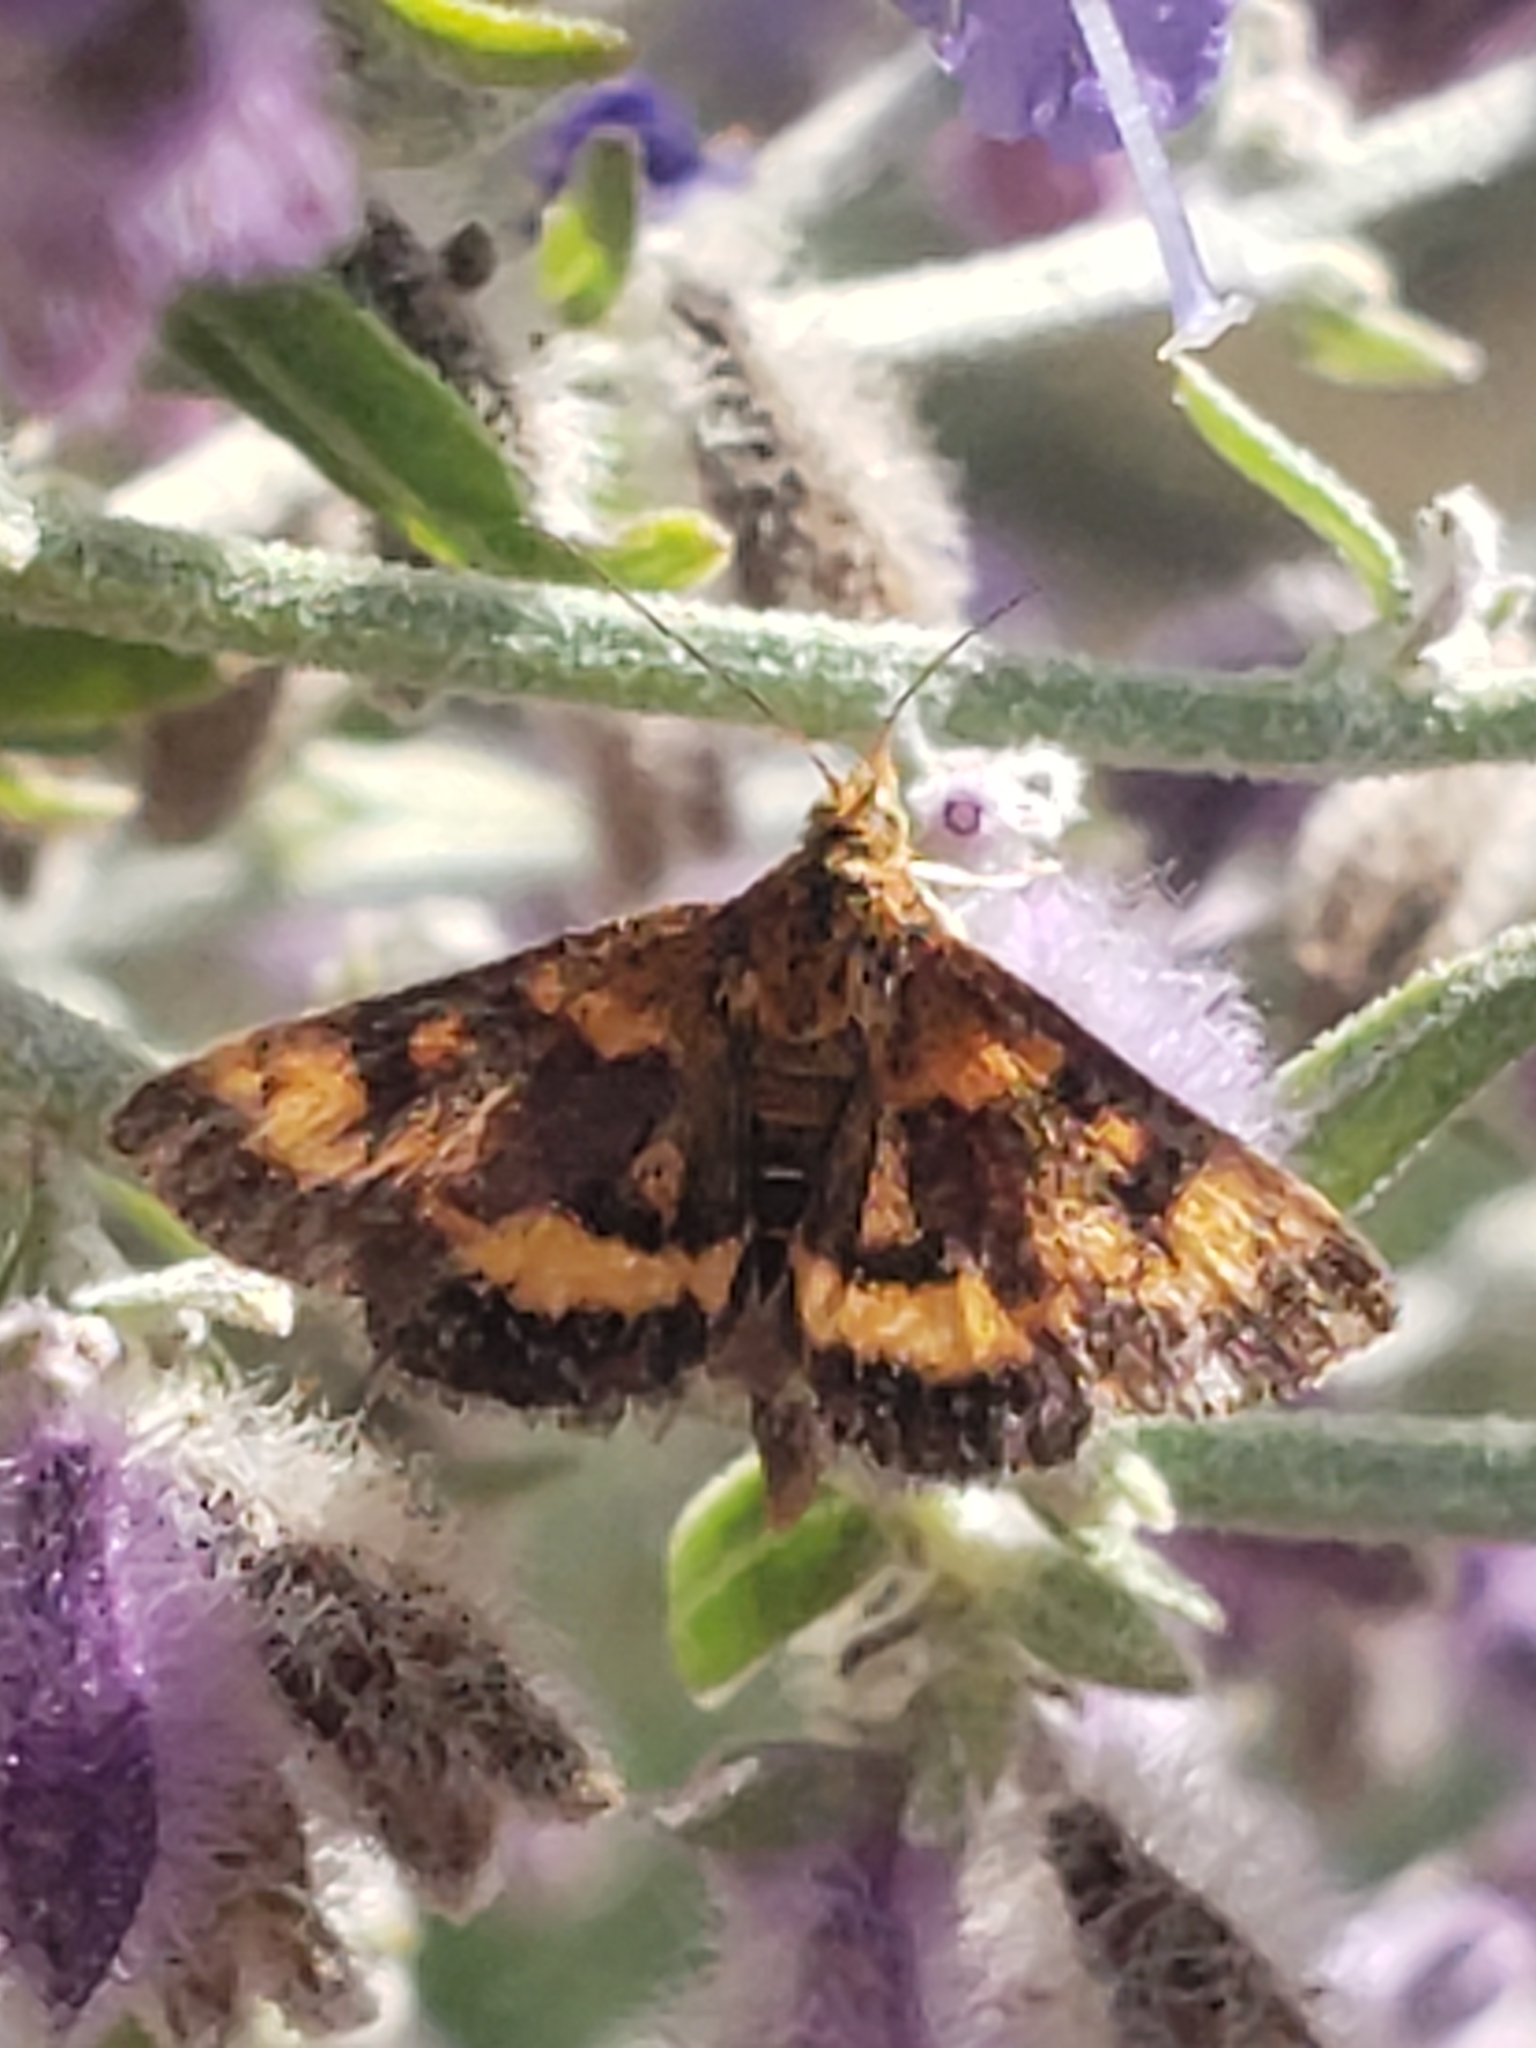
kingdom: Animalia
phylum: Arthropoda
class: Insecta
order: Lepidoptera
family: Crambidae
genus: Pyrausta
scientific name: Pyrausta orphisalis
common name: Orange mint moth
